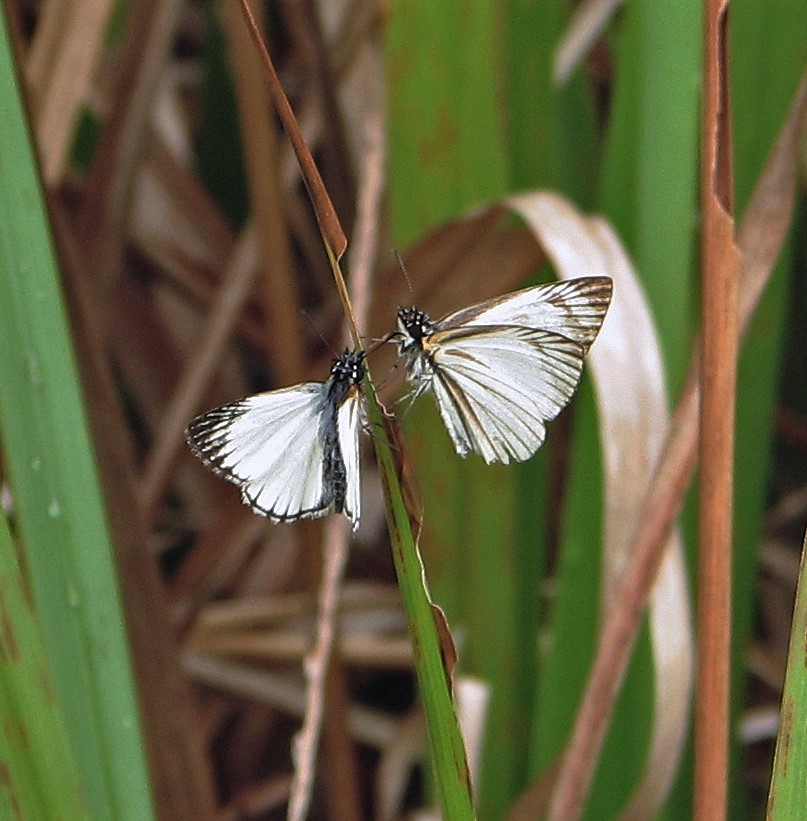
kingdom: Animalia
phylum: Arthropoda
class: Insecta
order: Lepidoptera
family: Hesperiidae
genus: Heliopetes
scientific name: Heliopetes arsalte
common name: Veined white-skipper
